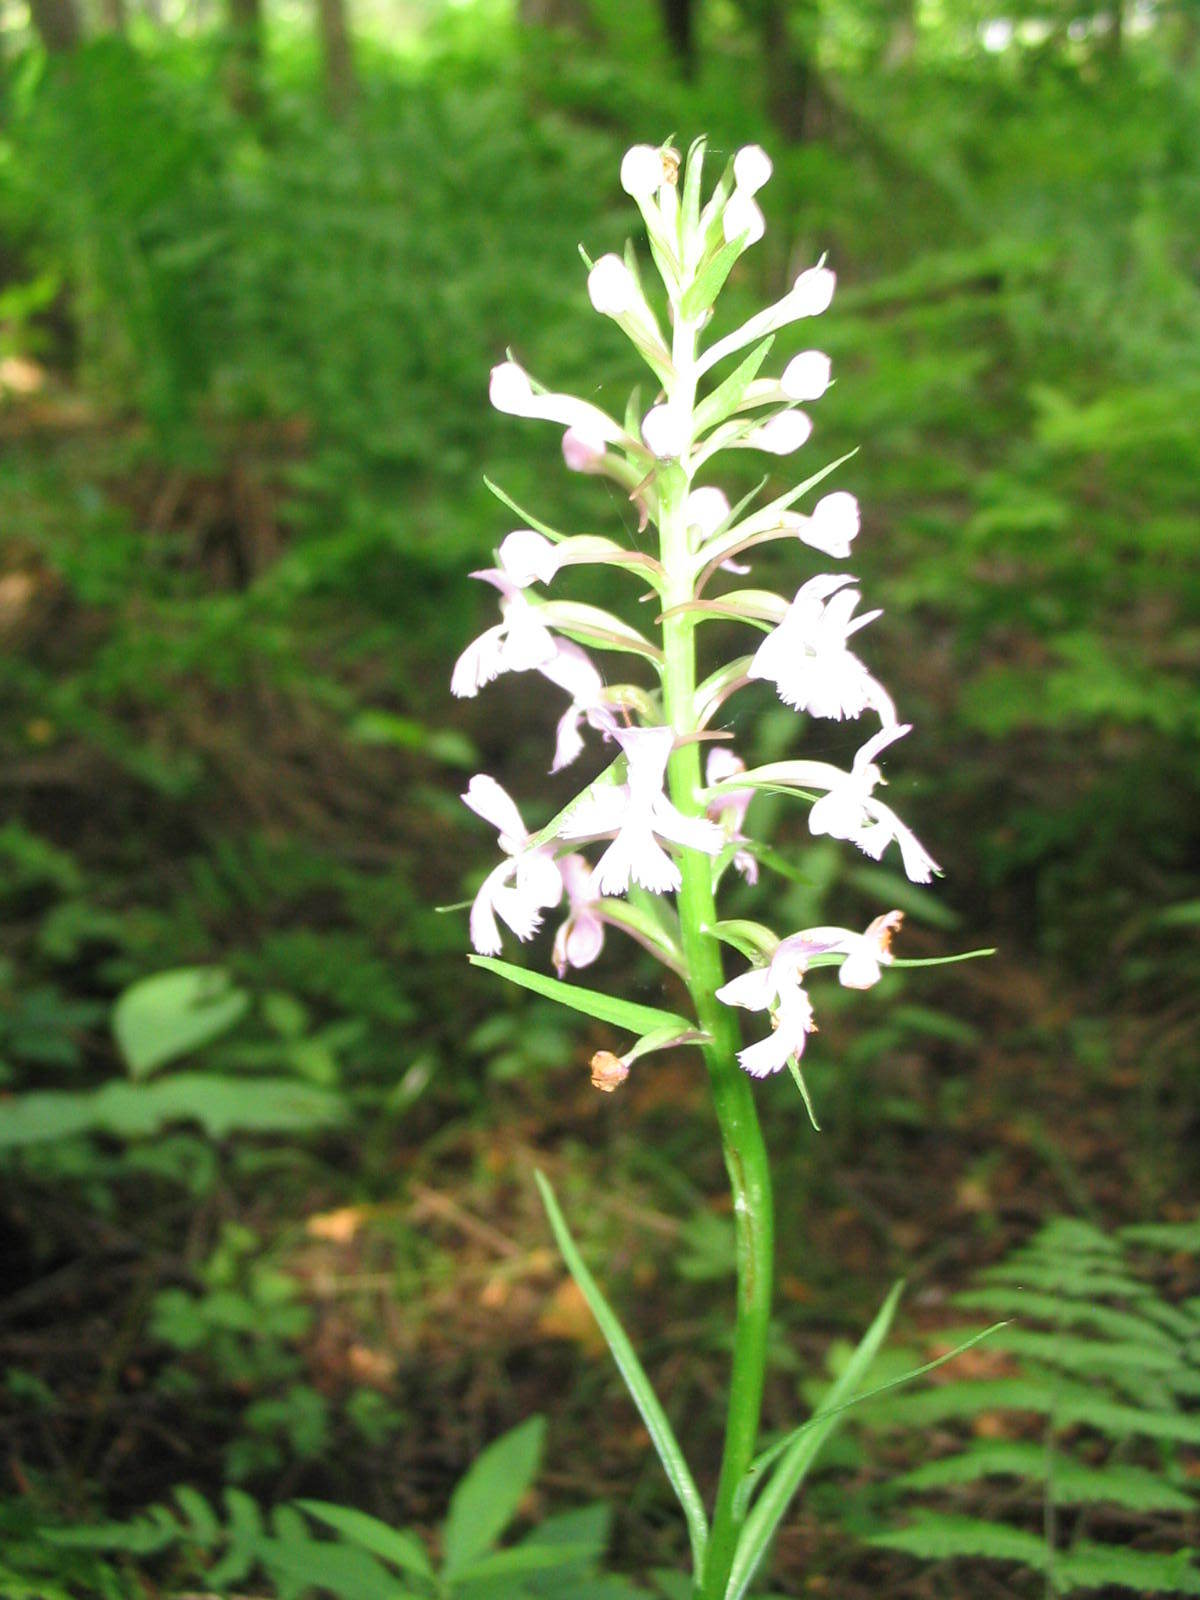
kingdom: Plantae
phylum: Tracheophyta
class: Liliopsida
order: Asparagales
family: Orchidaceae
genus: Platanthera
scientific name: Platanthera psycodes
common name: Lesser purple fringed orchid
